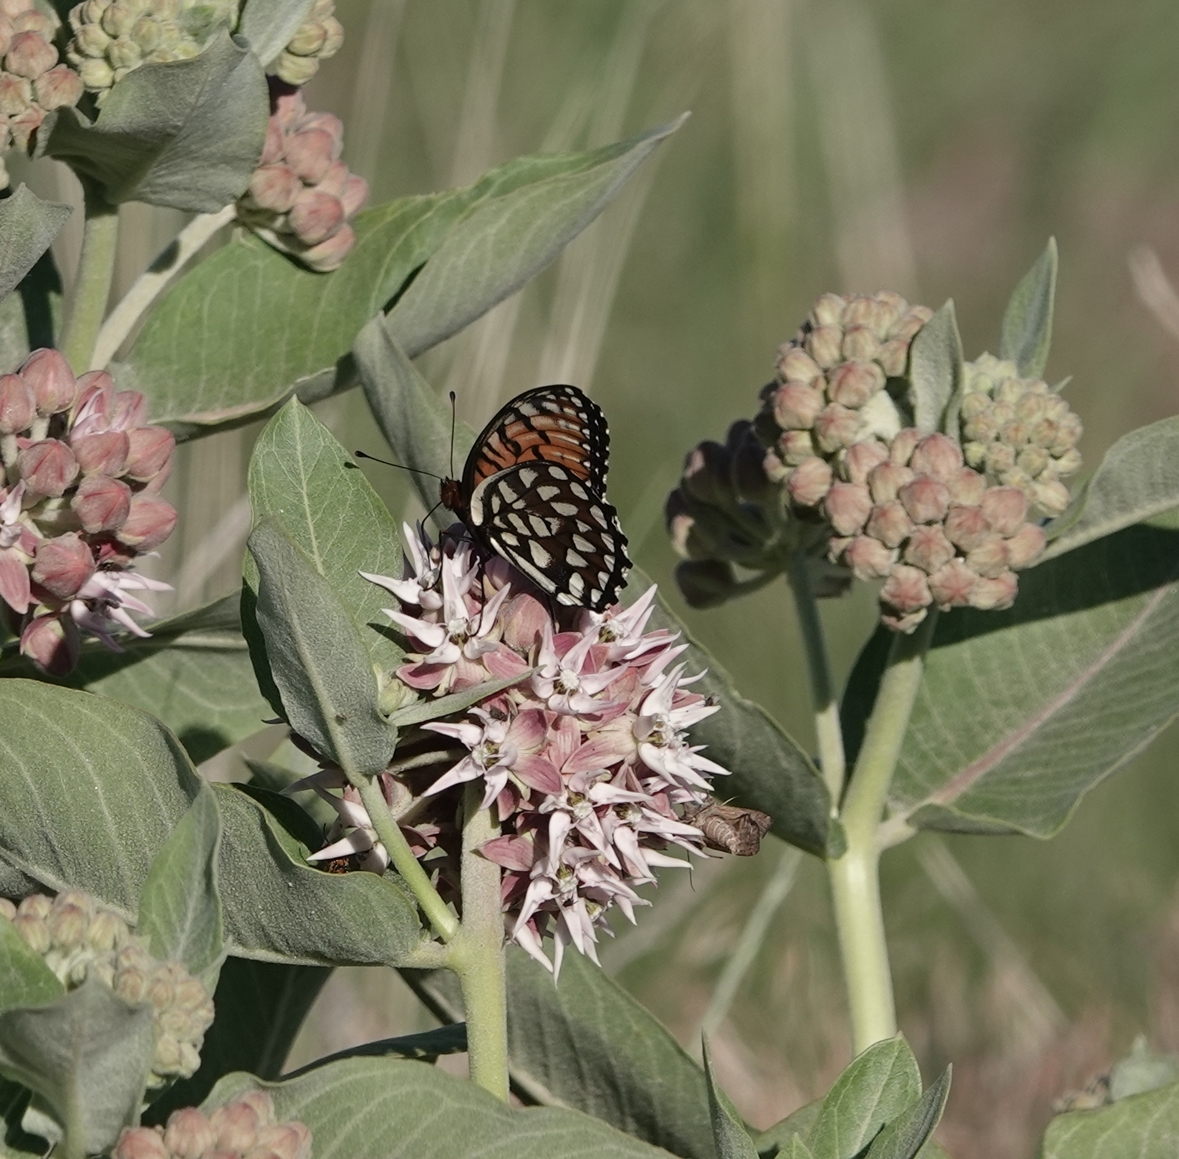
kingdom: Animalia
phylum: Arthropoda
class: Insecta
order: Lepidoptera
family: Nymphalidae
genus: Speyeria
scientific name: Speyeria idalia
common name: Regal fritillary
